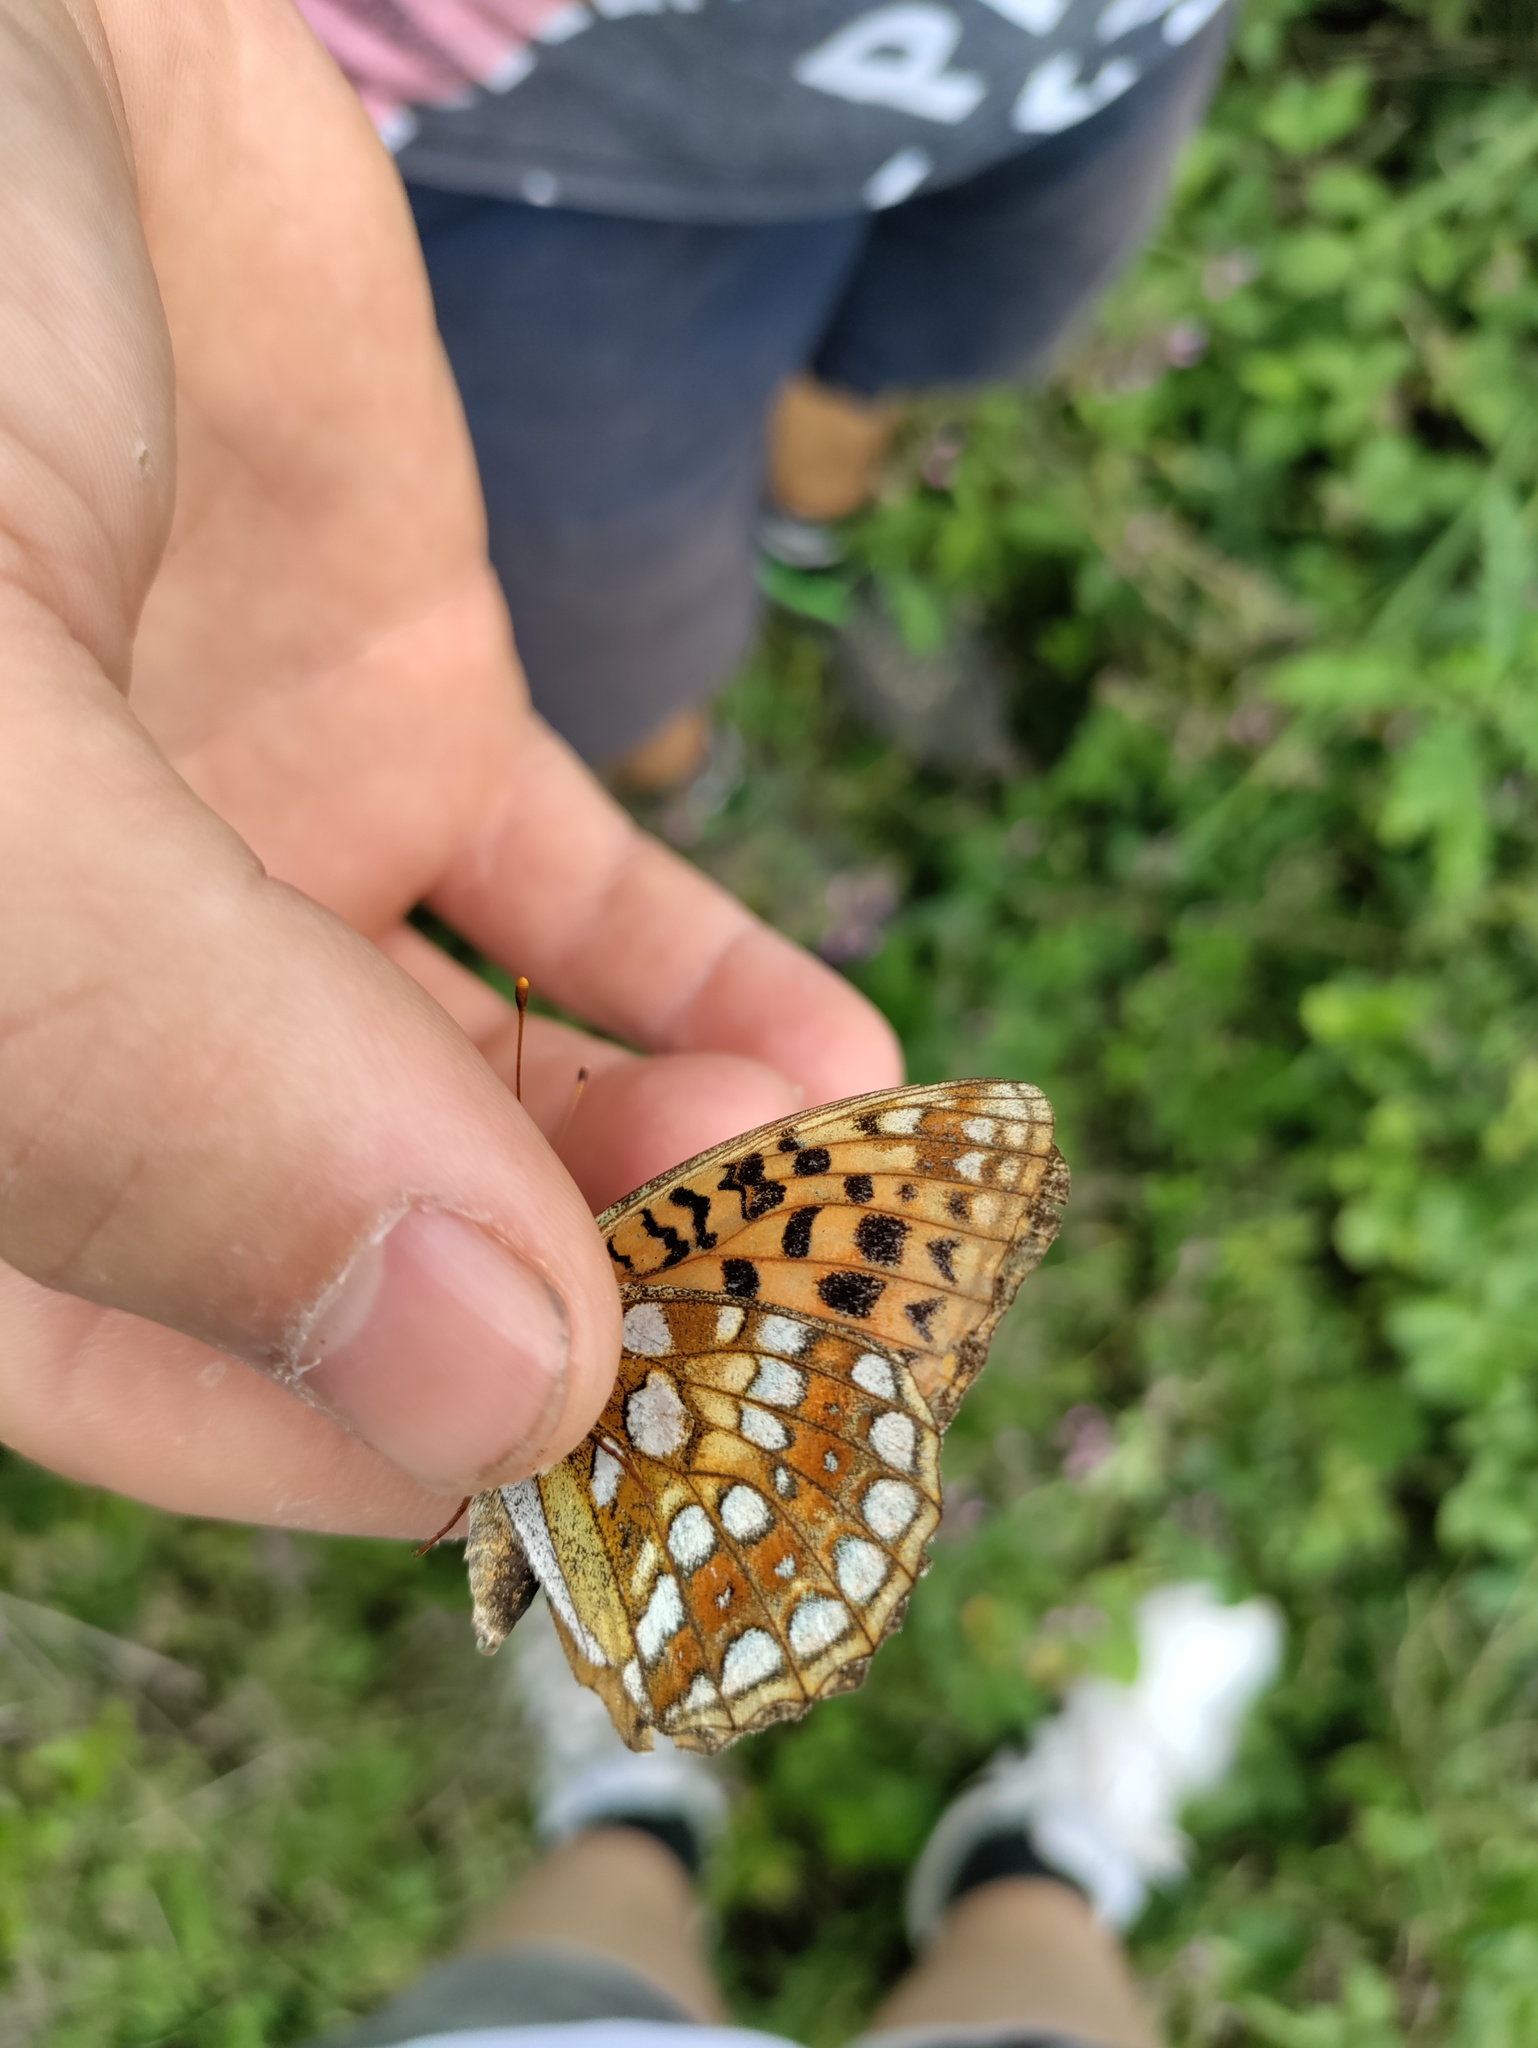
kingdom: Animalia
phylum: Arthropoda
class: Insecta
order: Lepidoptera
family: Nymphalidae
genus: Fabriciana
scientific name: Fabriciana adippe
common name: High brown fritillary
